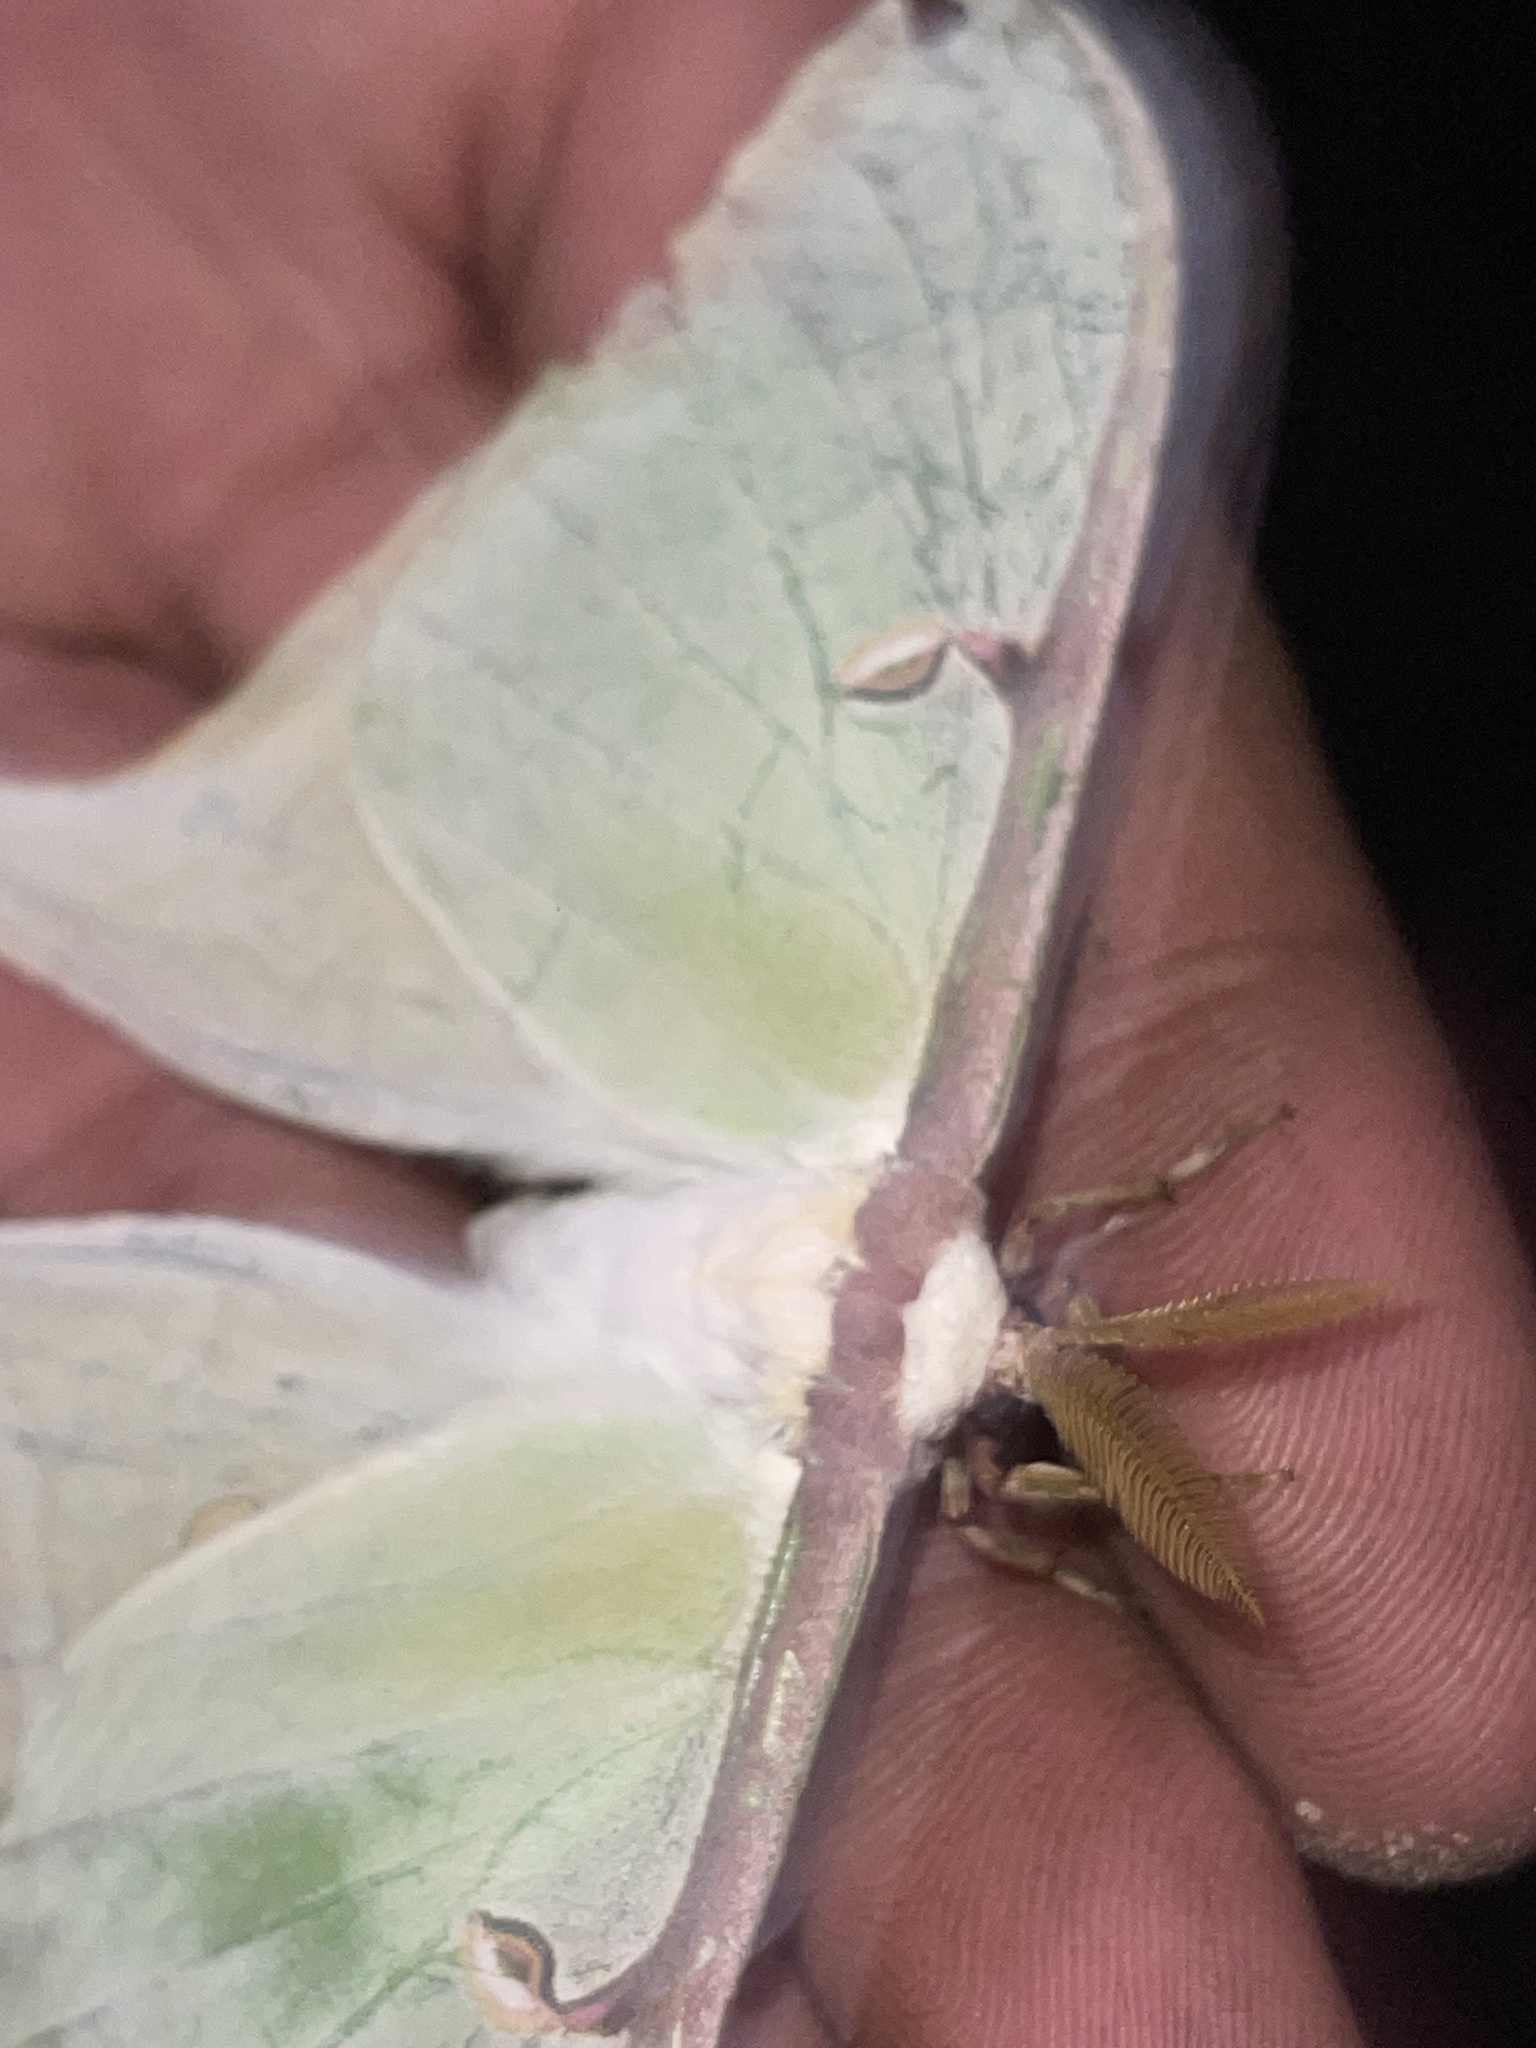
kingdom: Animalia
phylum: Arthropoda
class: Insecta
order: Lepidoptera
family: Saturniidae
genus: Actias
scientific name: Actias luna
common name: Luna moth
